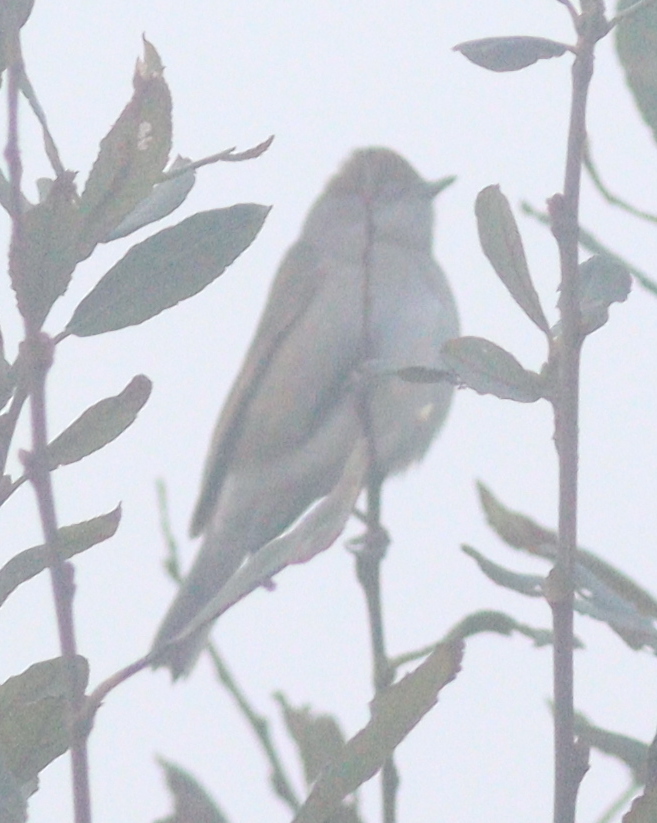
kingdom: Animalia
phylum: Chordata
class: Aves
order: Passeriformes
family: Sylviidae
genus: Sylvia
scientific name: Sylvia atricapilla
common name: Eurasian blackcap
